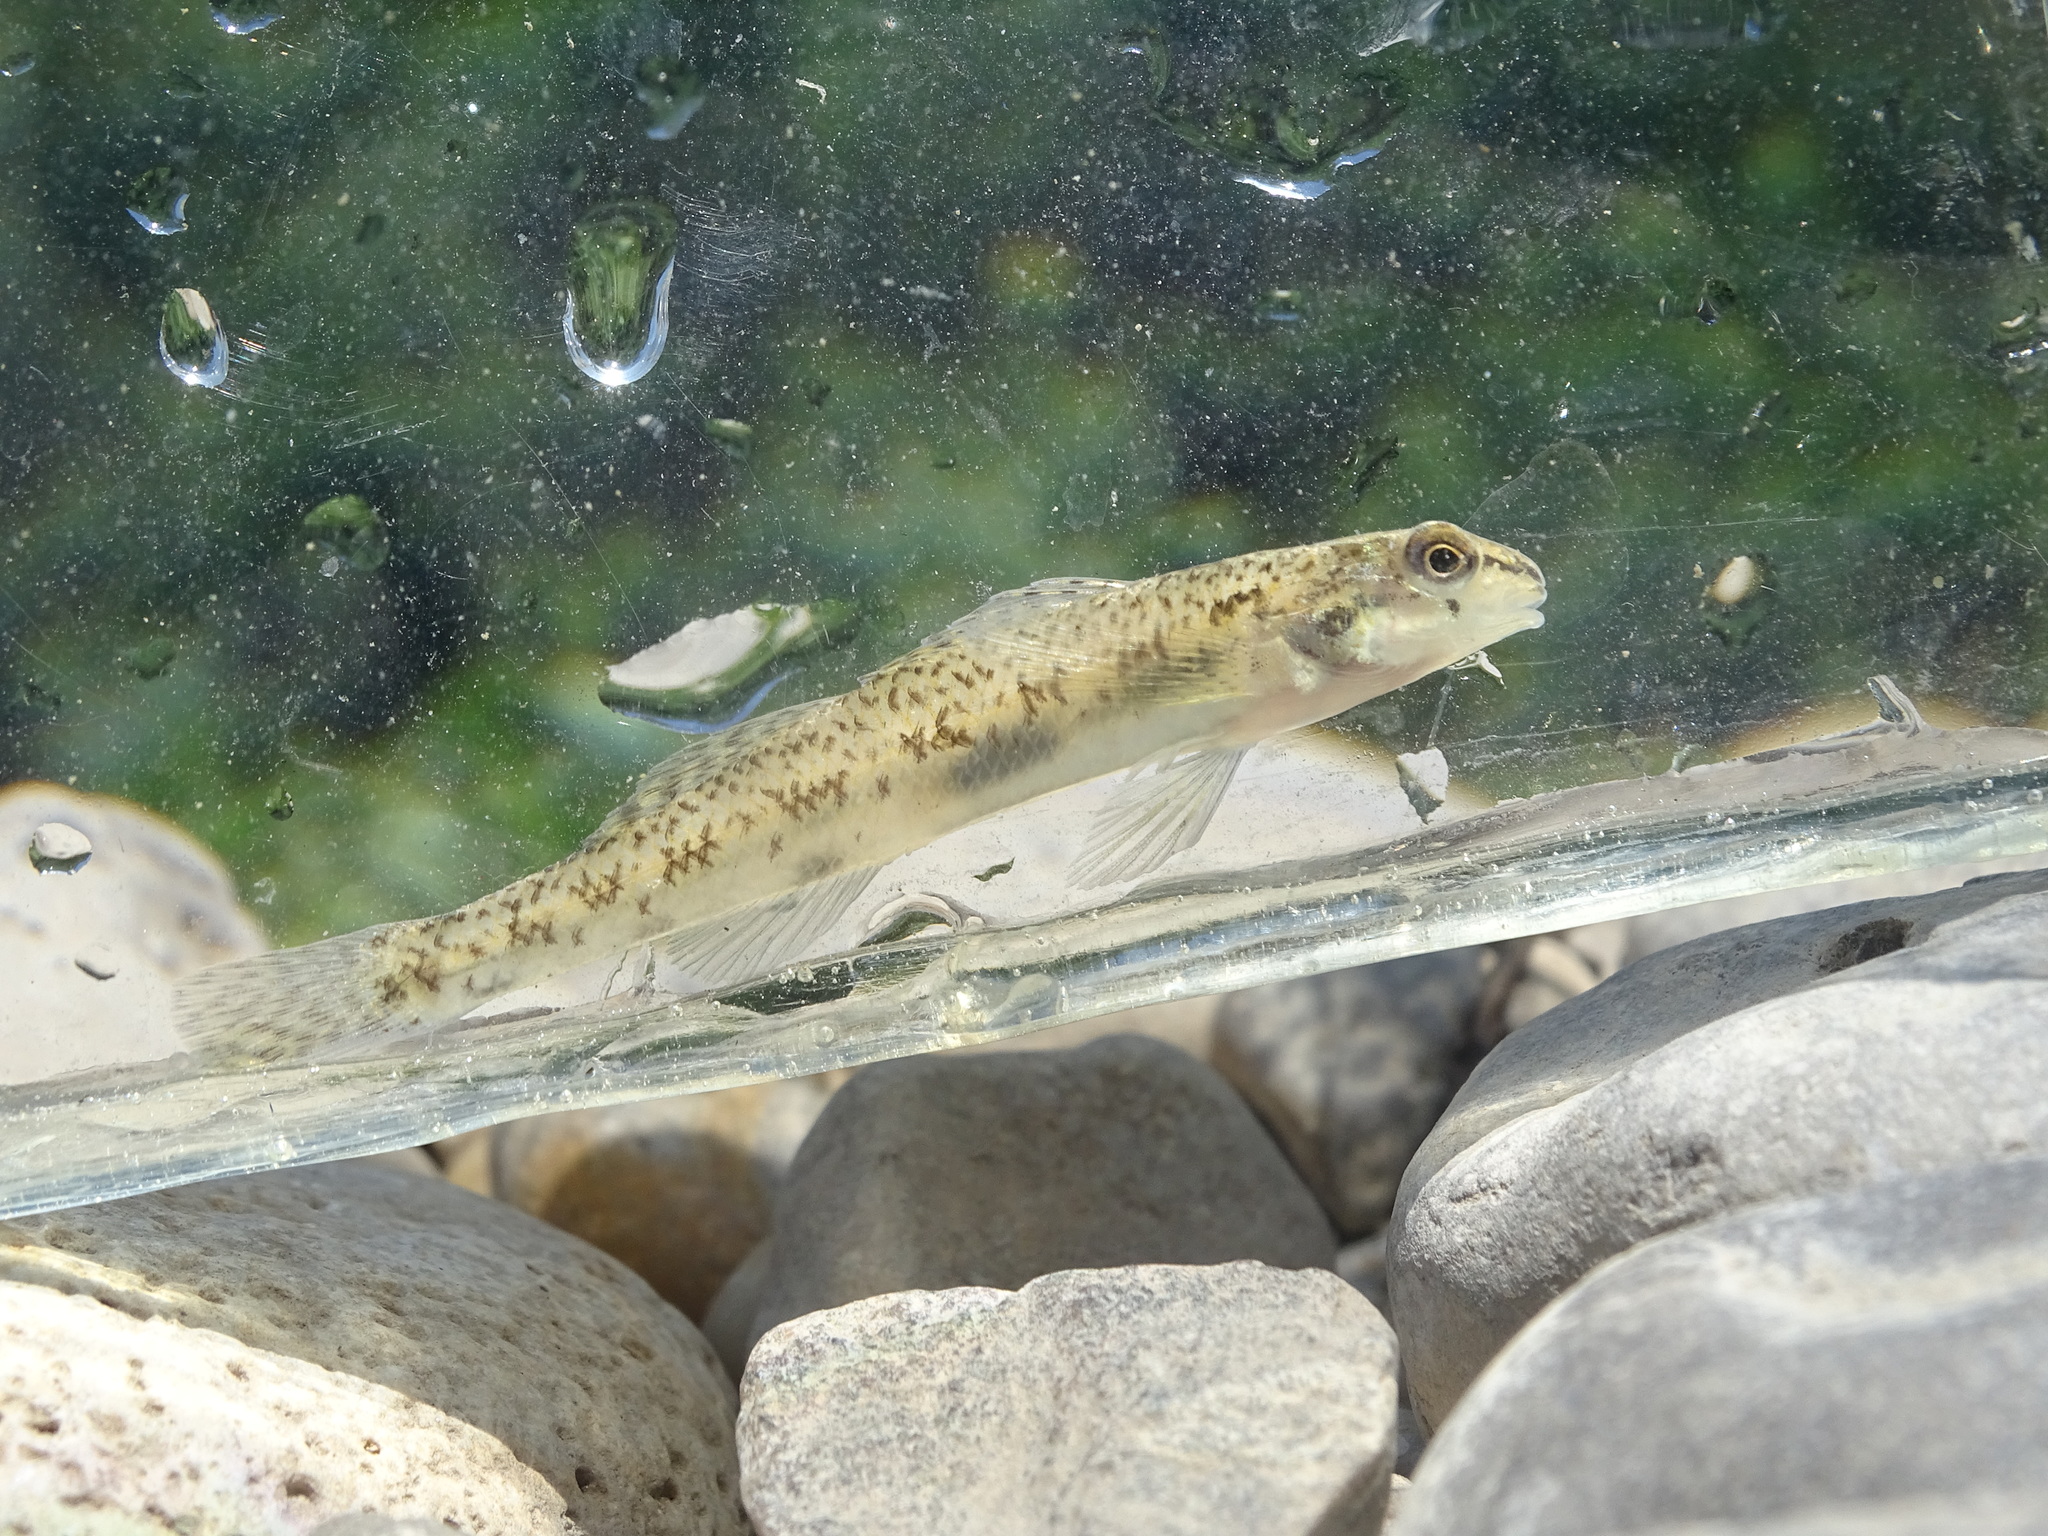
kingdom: Animalia
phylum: Chordata
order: Perciformes
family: Percidae
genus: Etheostoma
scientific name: Etheostoma nigrum
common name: Johnny darter
